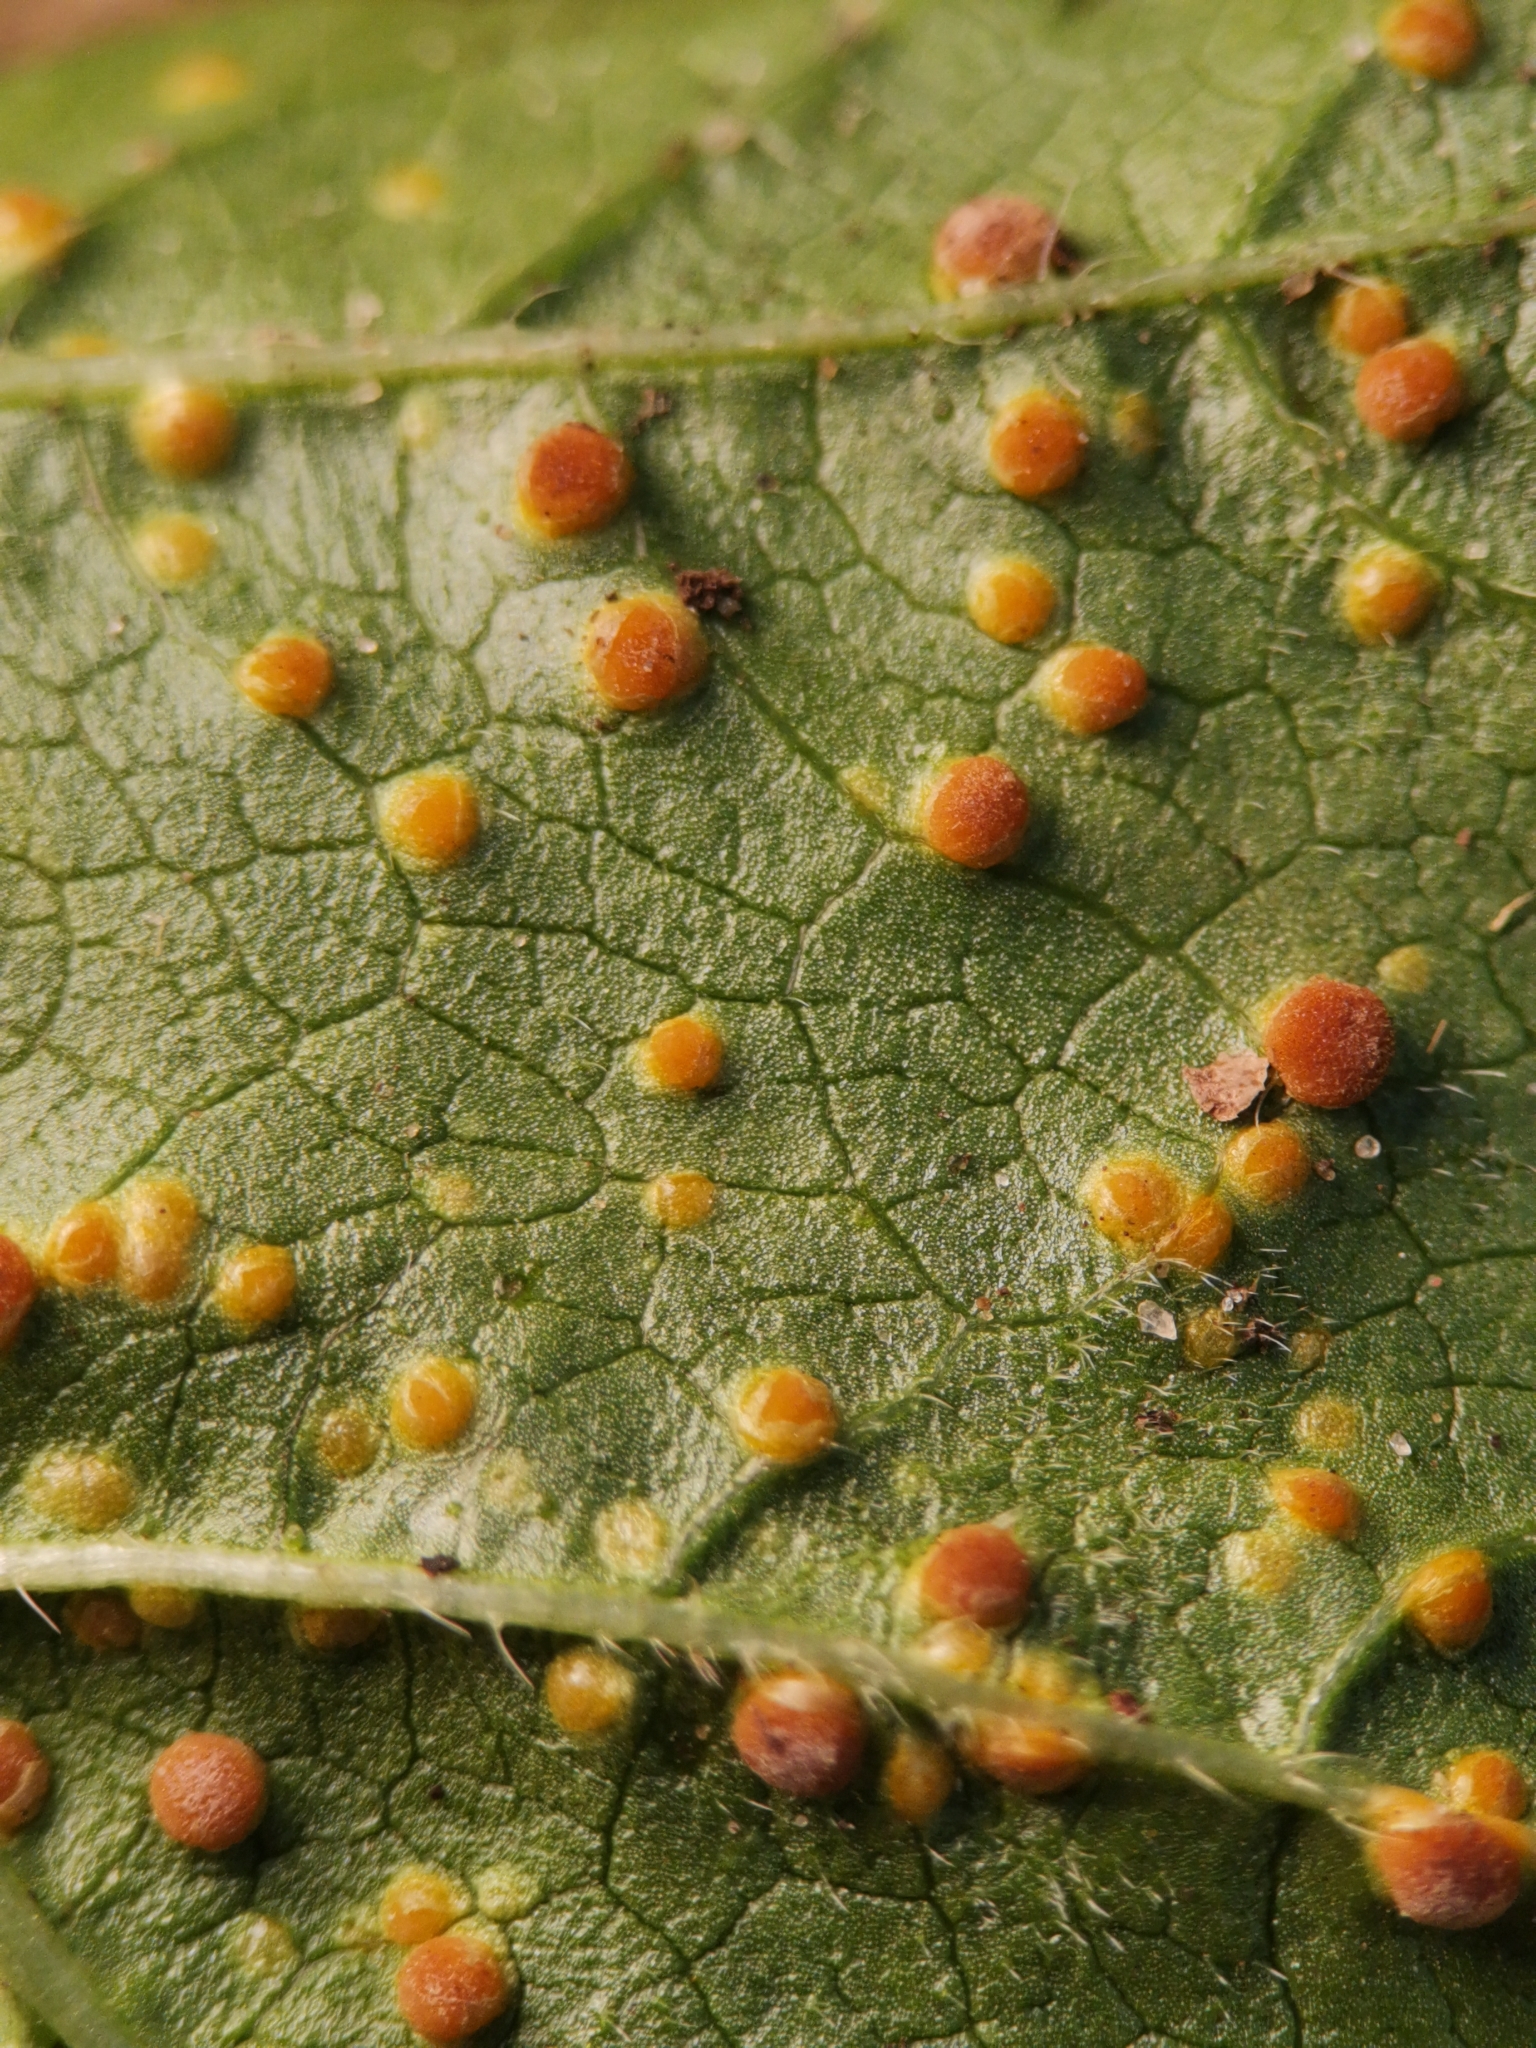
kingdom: Fungi
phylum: Basidiomycota
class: Pucciniomycetes
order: Pucciniales
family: Pucciniaceae
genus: Puccinia
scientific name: Puccinia malvacearum
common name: Hollyhock rust
